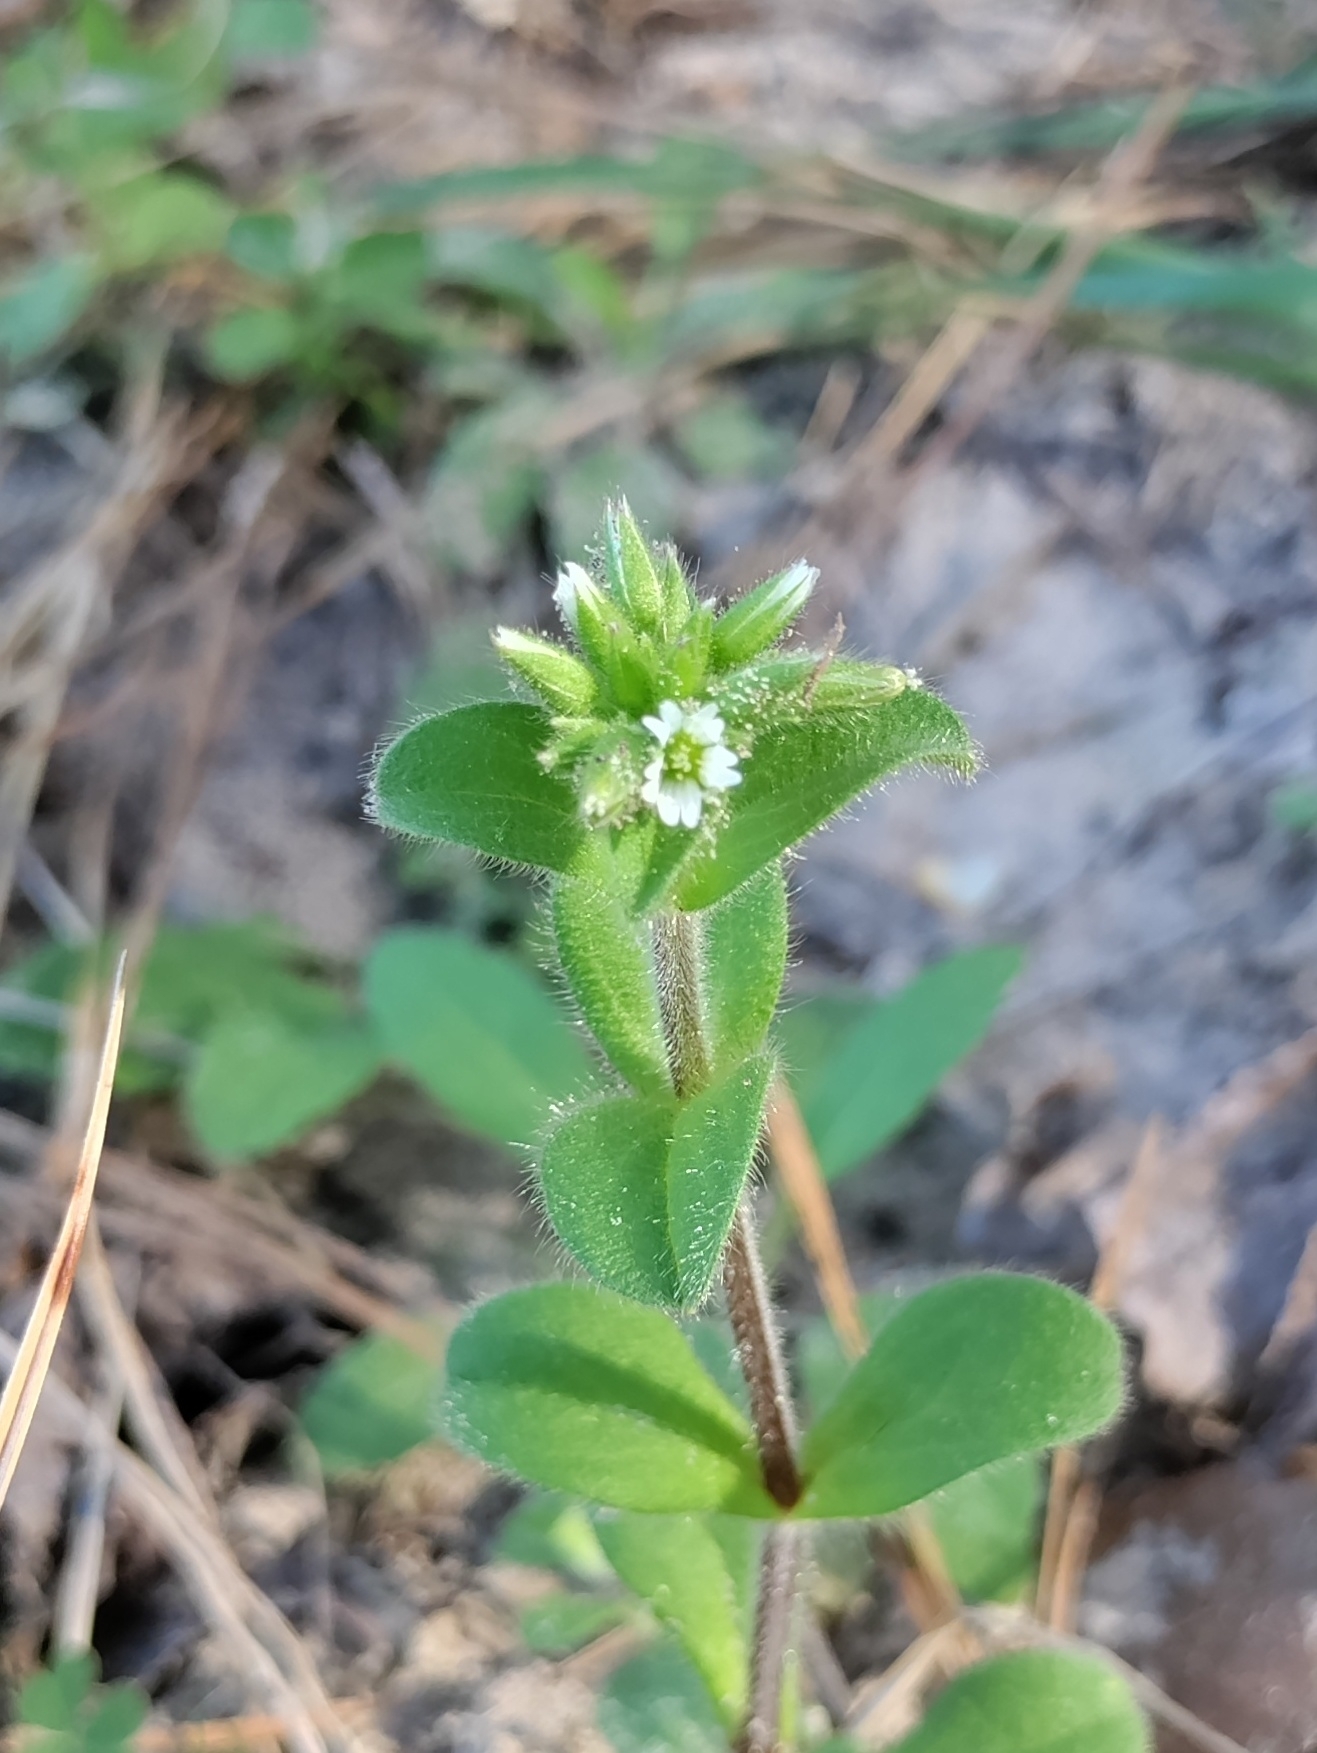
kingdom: Plantae
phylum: Tracheophyta
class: Magnoliopsida
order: Caryophyllales
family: Caryophyllaceae
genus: Cerastium
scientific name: Cerastium glomeratum
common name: Sticky chickweed
